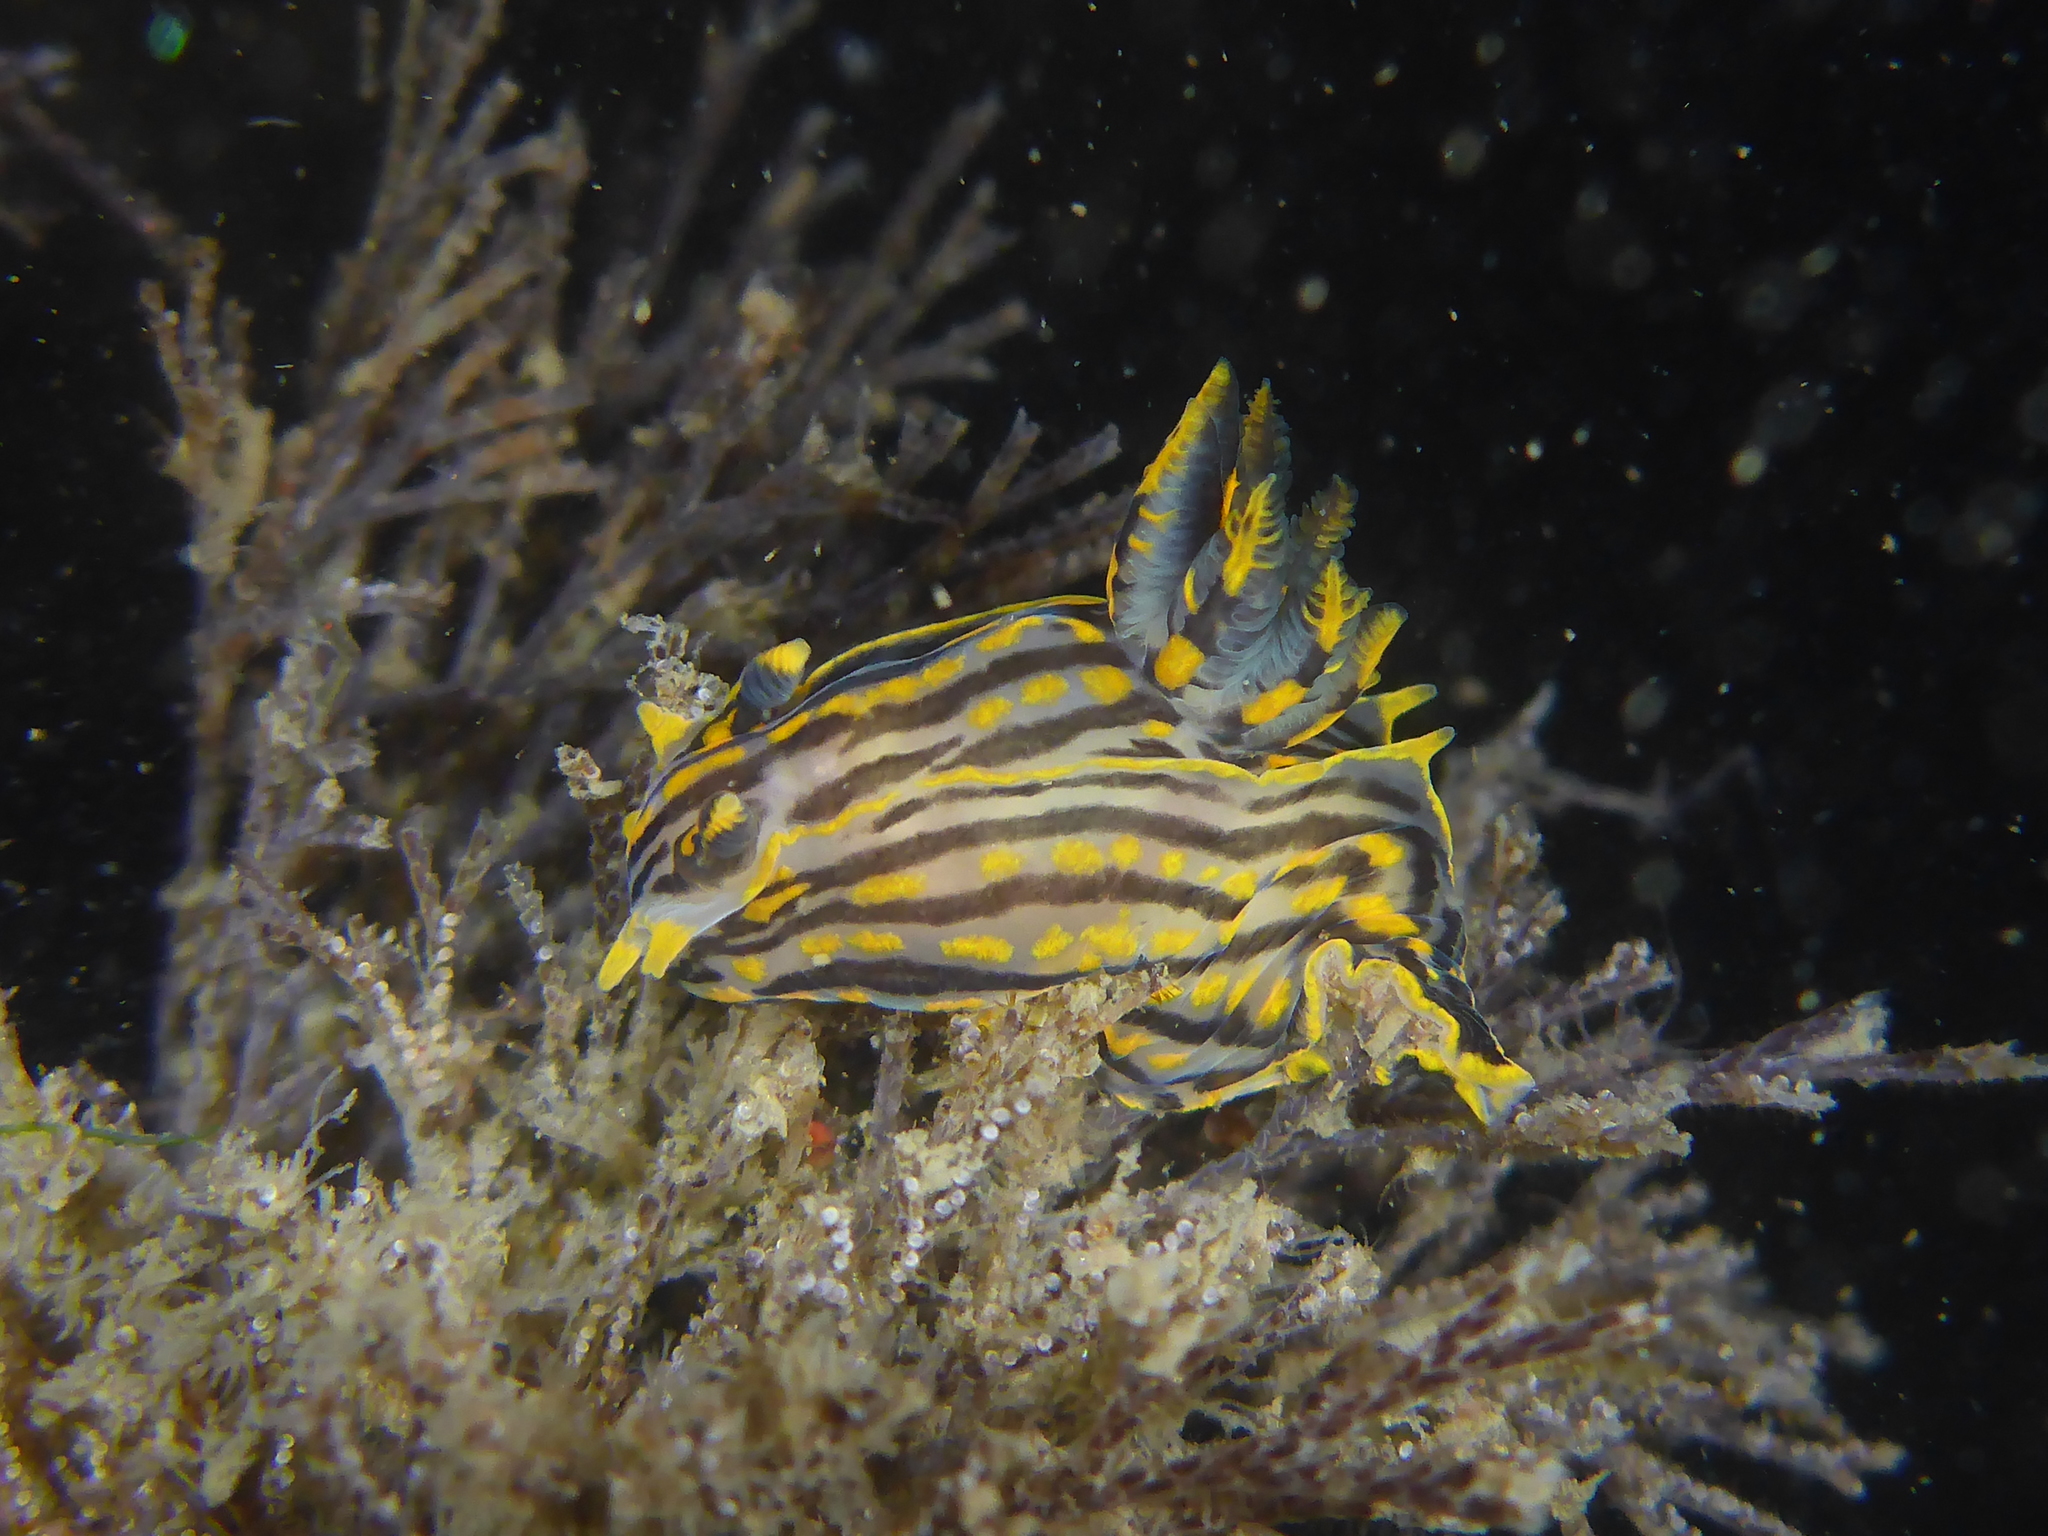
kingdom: Animalia
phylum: Mollusca
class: Gastropoda
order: Nudibranchia
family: Polyceridae
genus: Polycera
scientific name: Polycera atra
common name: Orange-spike polycera
